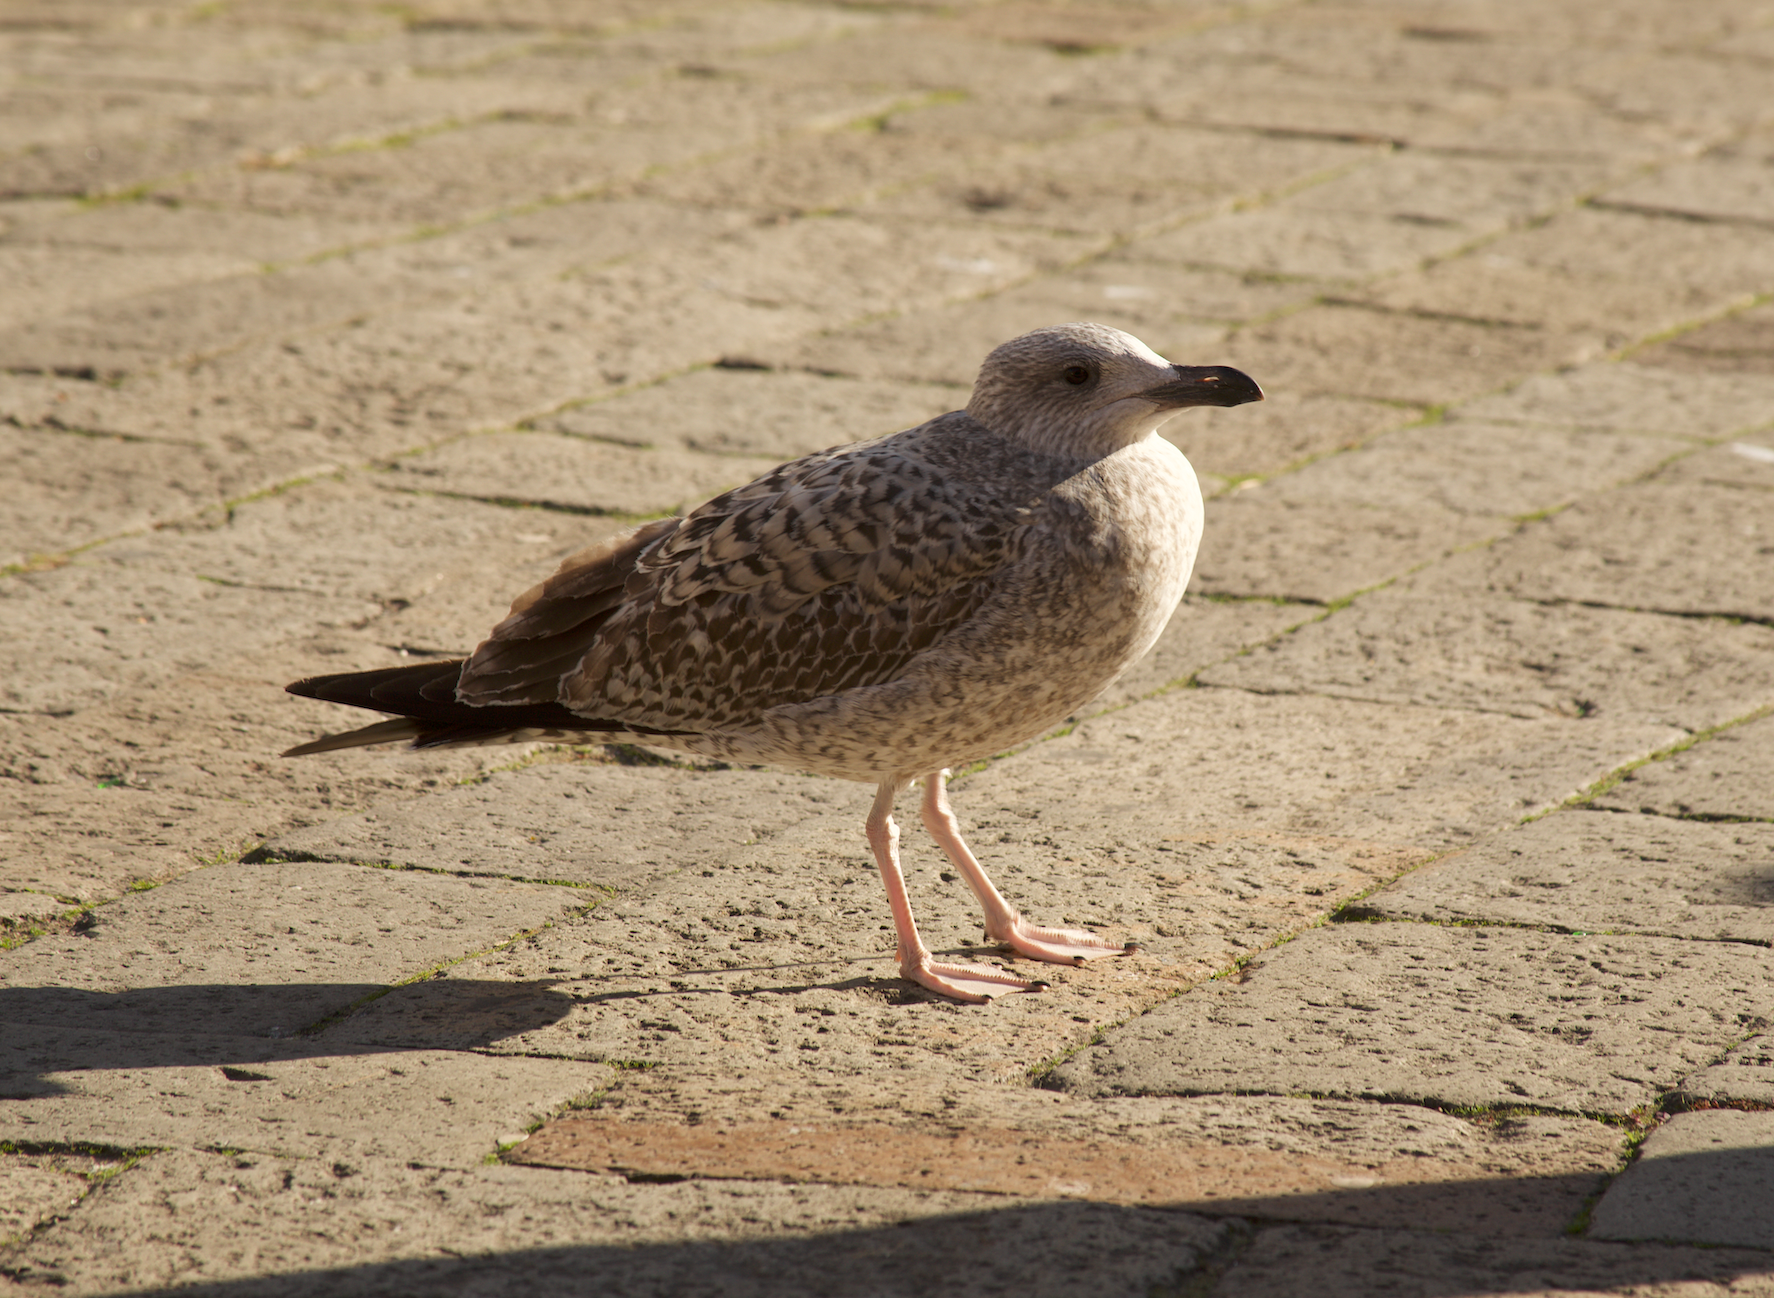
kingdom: Animalia
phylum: Chordata
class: Aves
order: Charadriiformes
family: Laridae
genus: Larus
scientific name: Larus michahellis
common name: Yellow-legged gull
